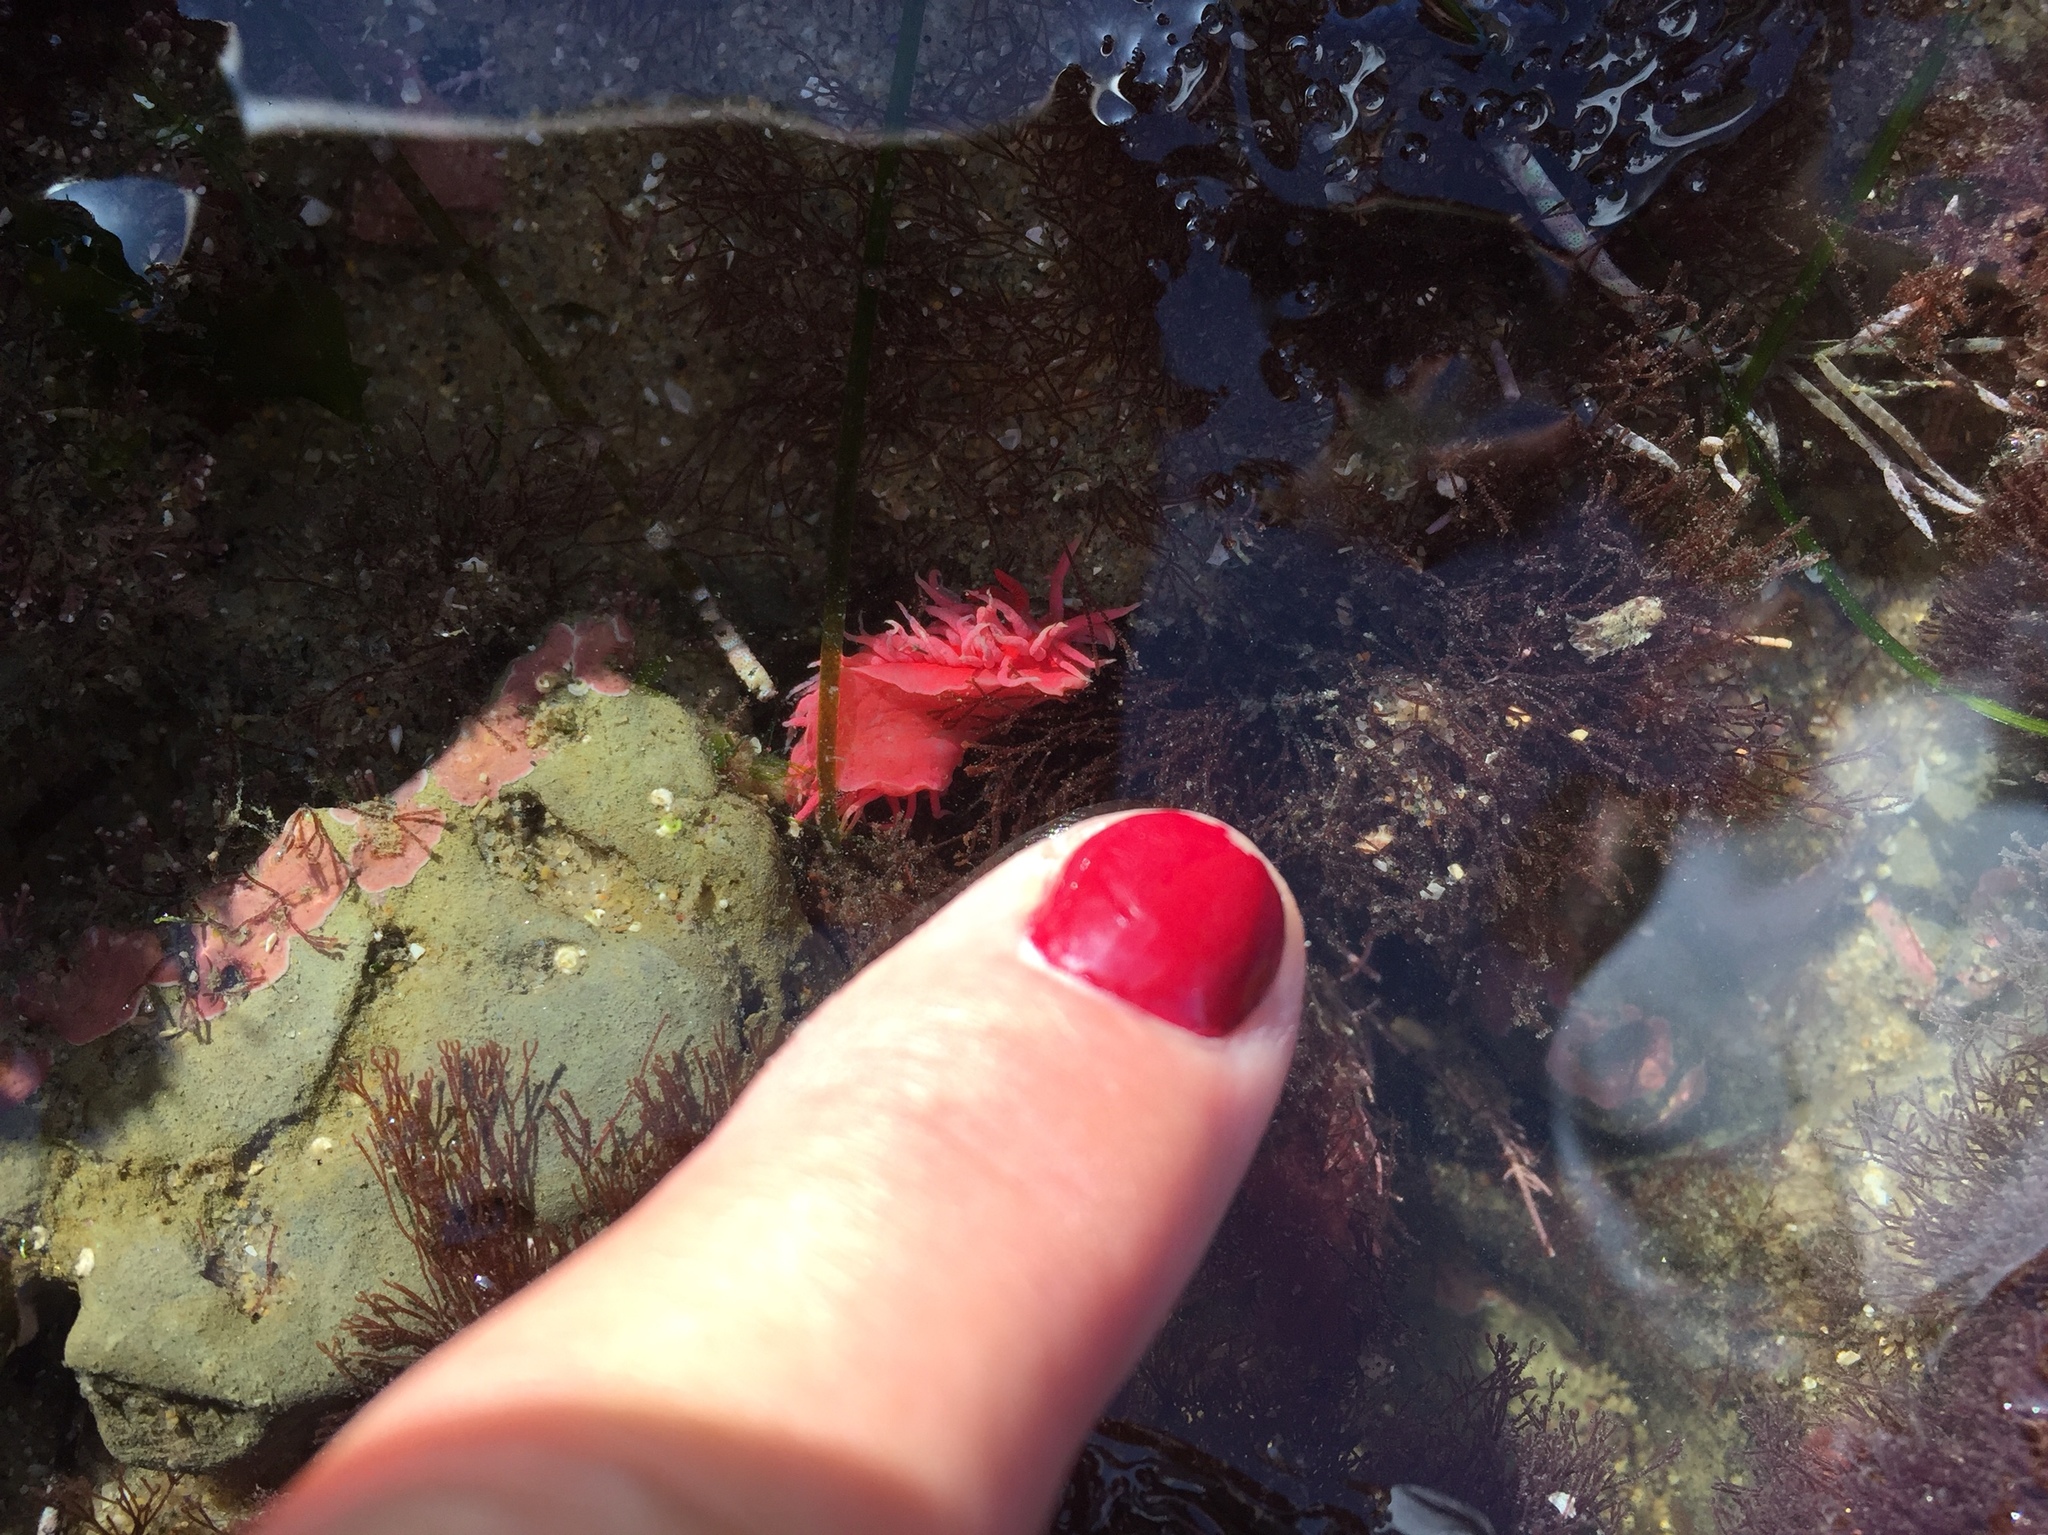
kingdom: Animalia
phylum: Mollusca
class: Gastropoda
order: Nudibranchia
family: Goniodorididae
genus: Okenia
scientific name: Okenia
